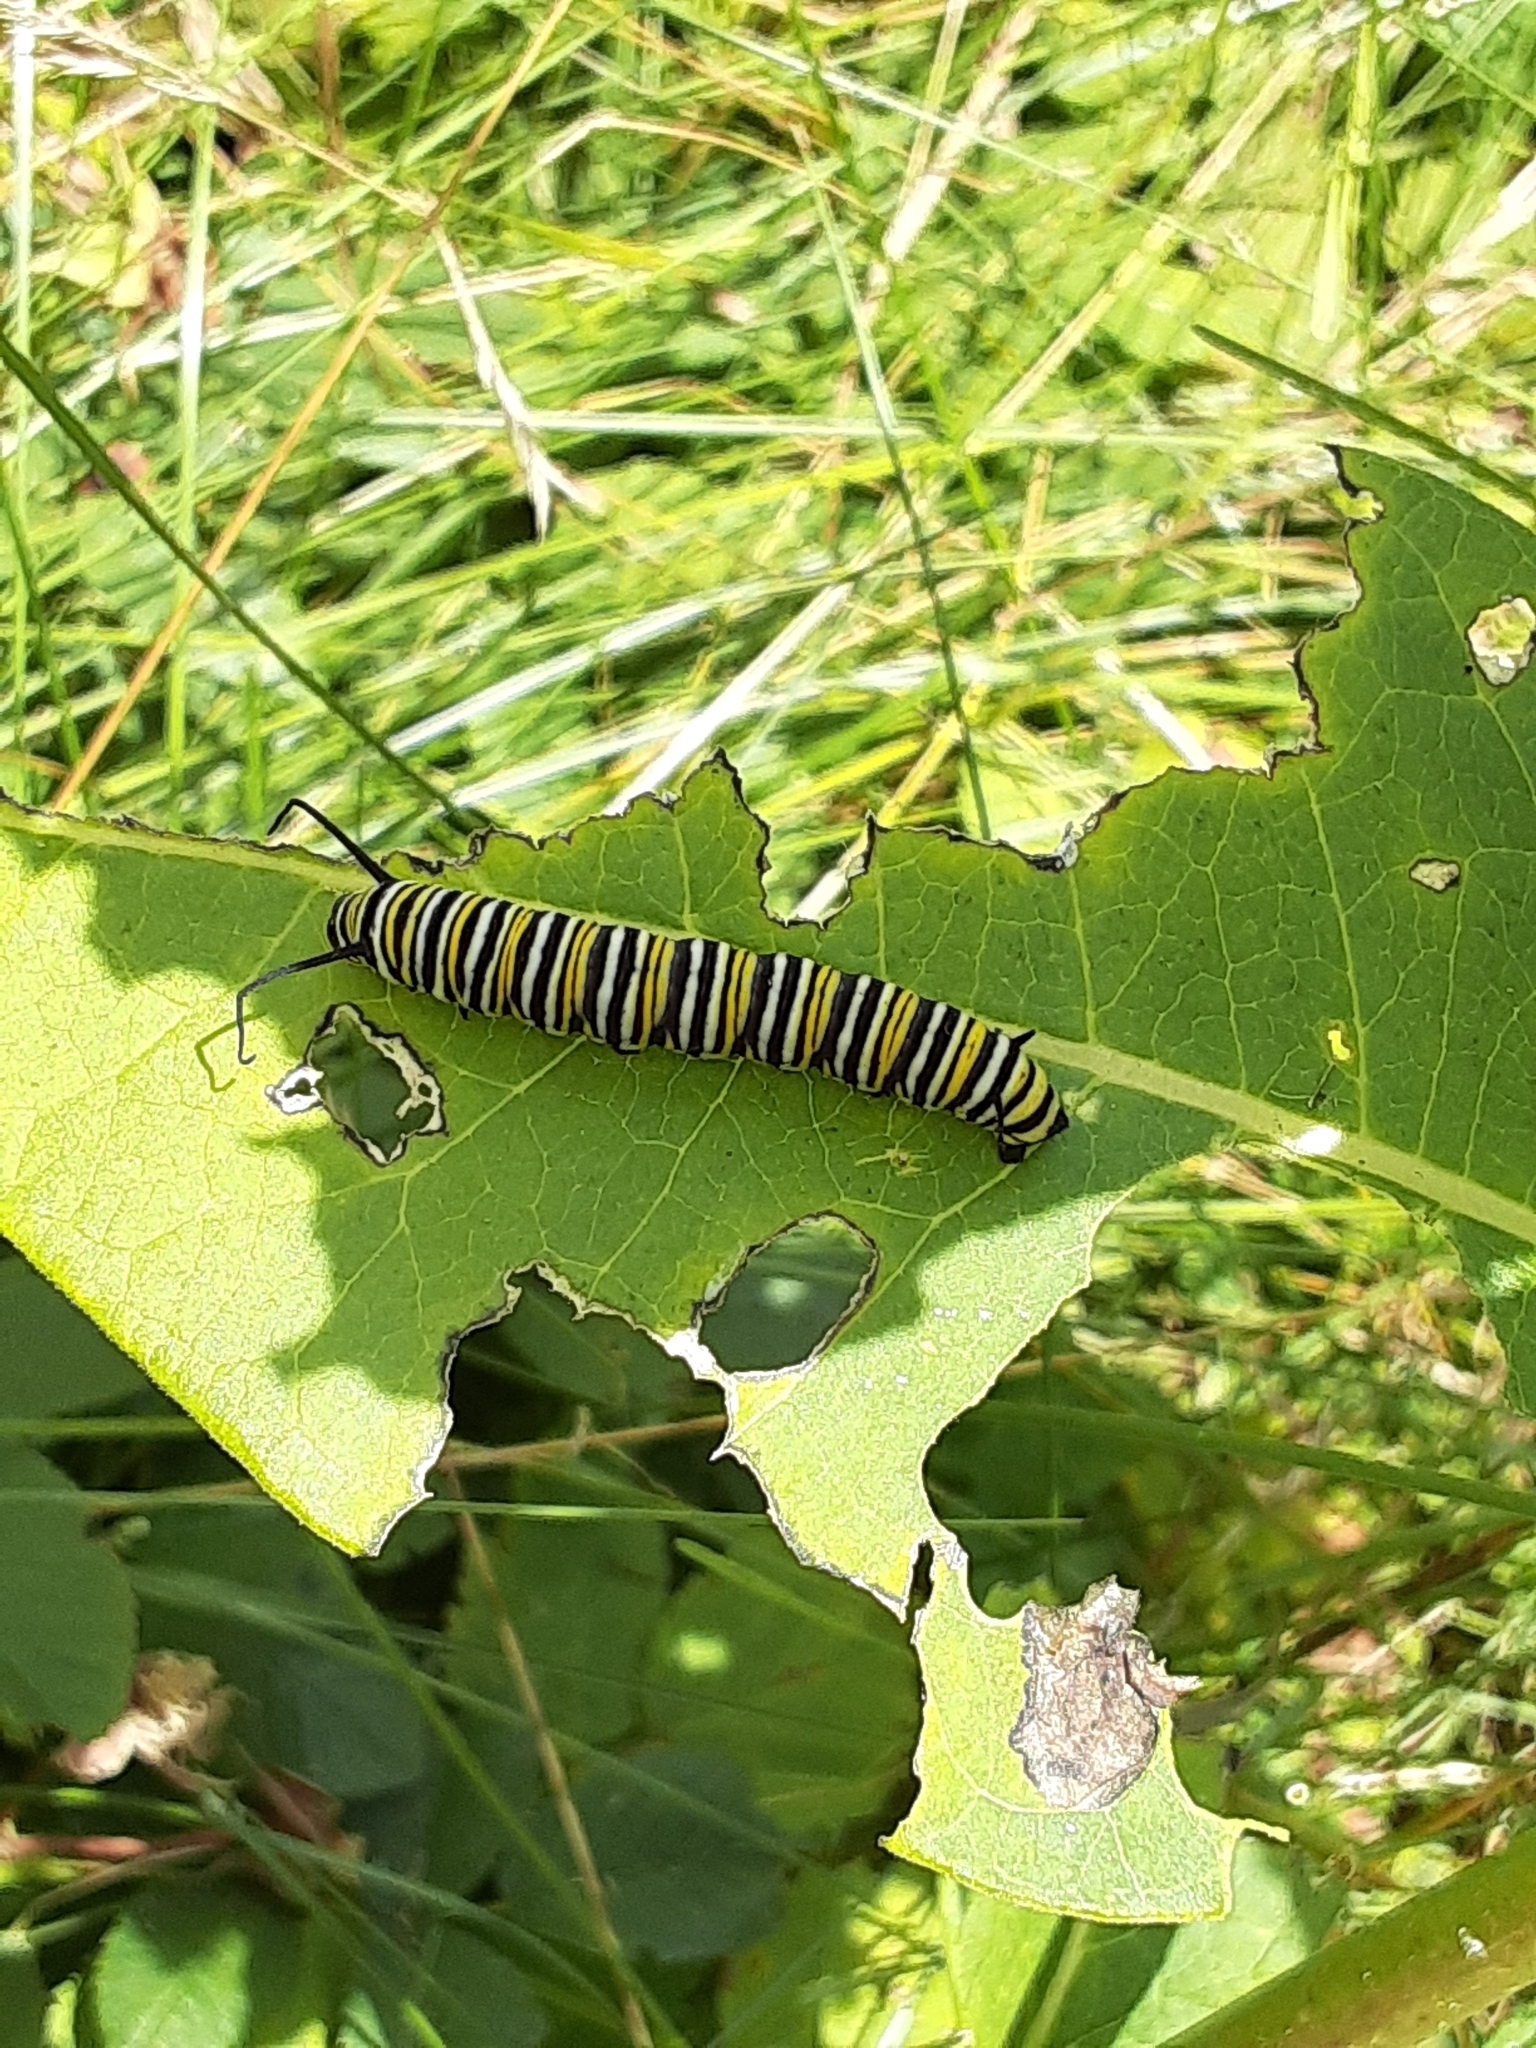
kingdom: Animalia
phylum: Arthropoda
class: Insecta
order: Lepidoptera
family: Nymphalidae
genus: Danaus
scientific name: Danaus plexippus
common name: Monarch
